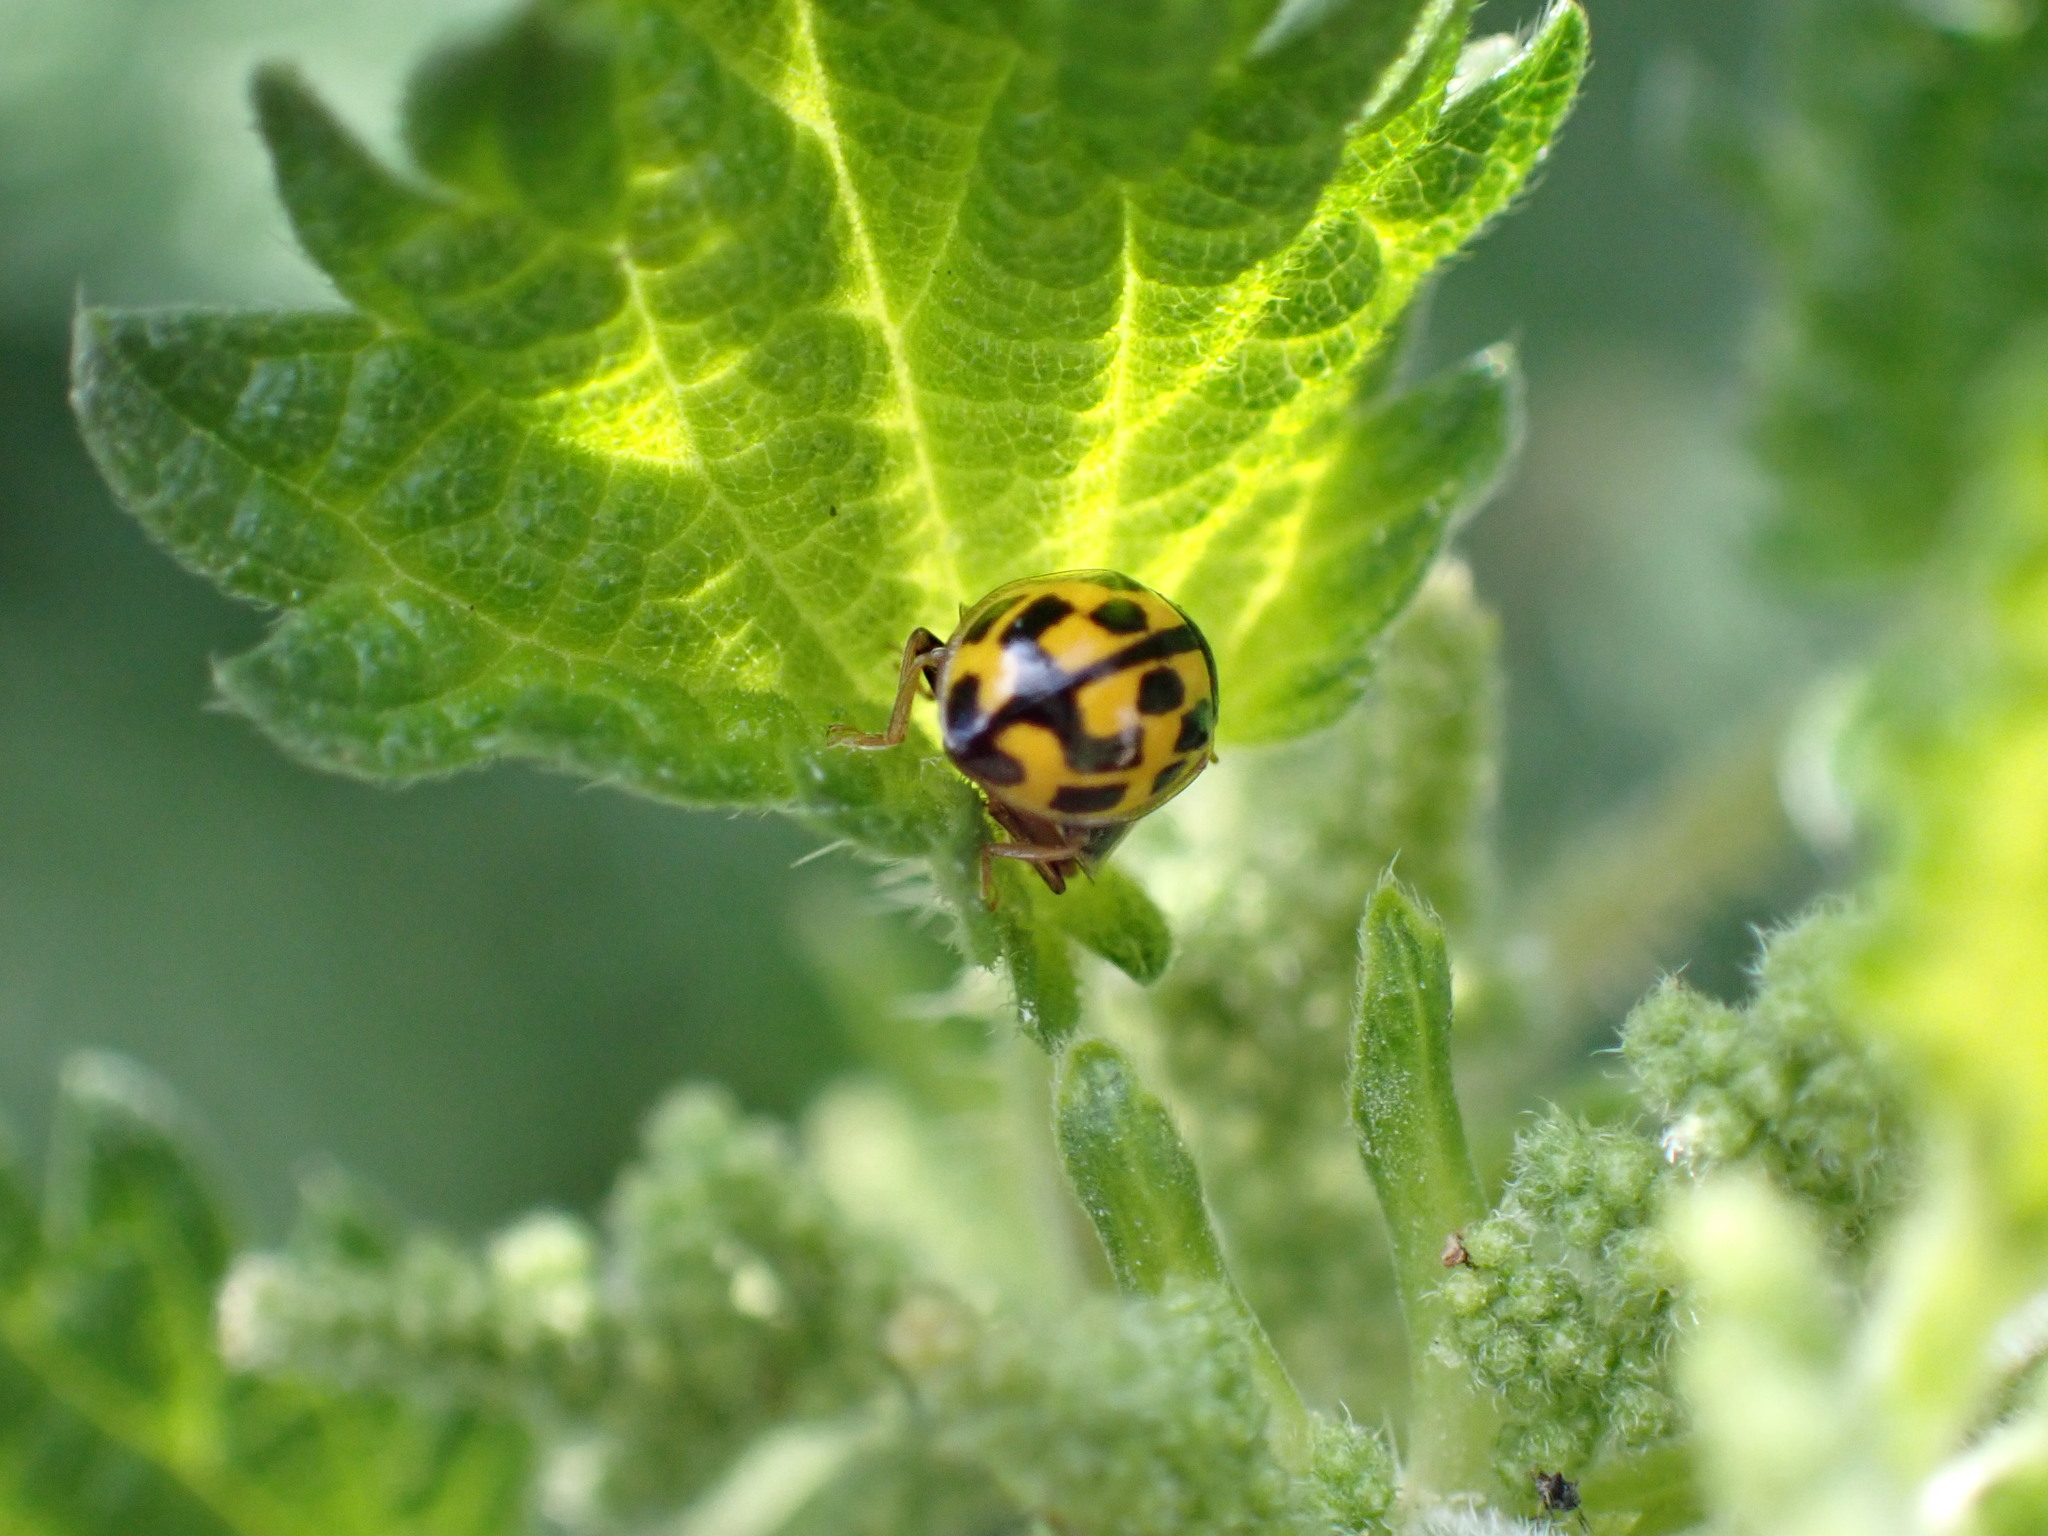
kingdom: Animalia
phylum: Arthropoda
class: Insecta
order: Coleoptera
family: Coccinellidae
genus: Propylaea
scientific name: Propylaea quatuordecimpunctata
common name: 14-spotted ladybird beetle
